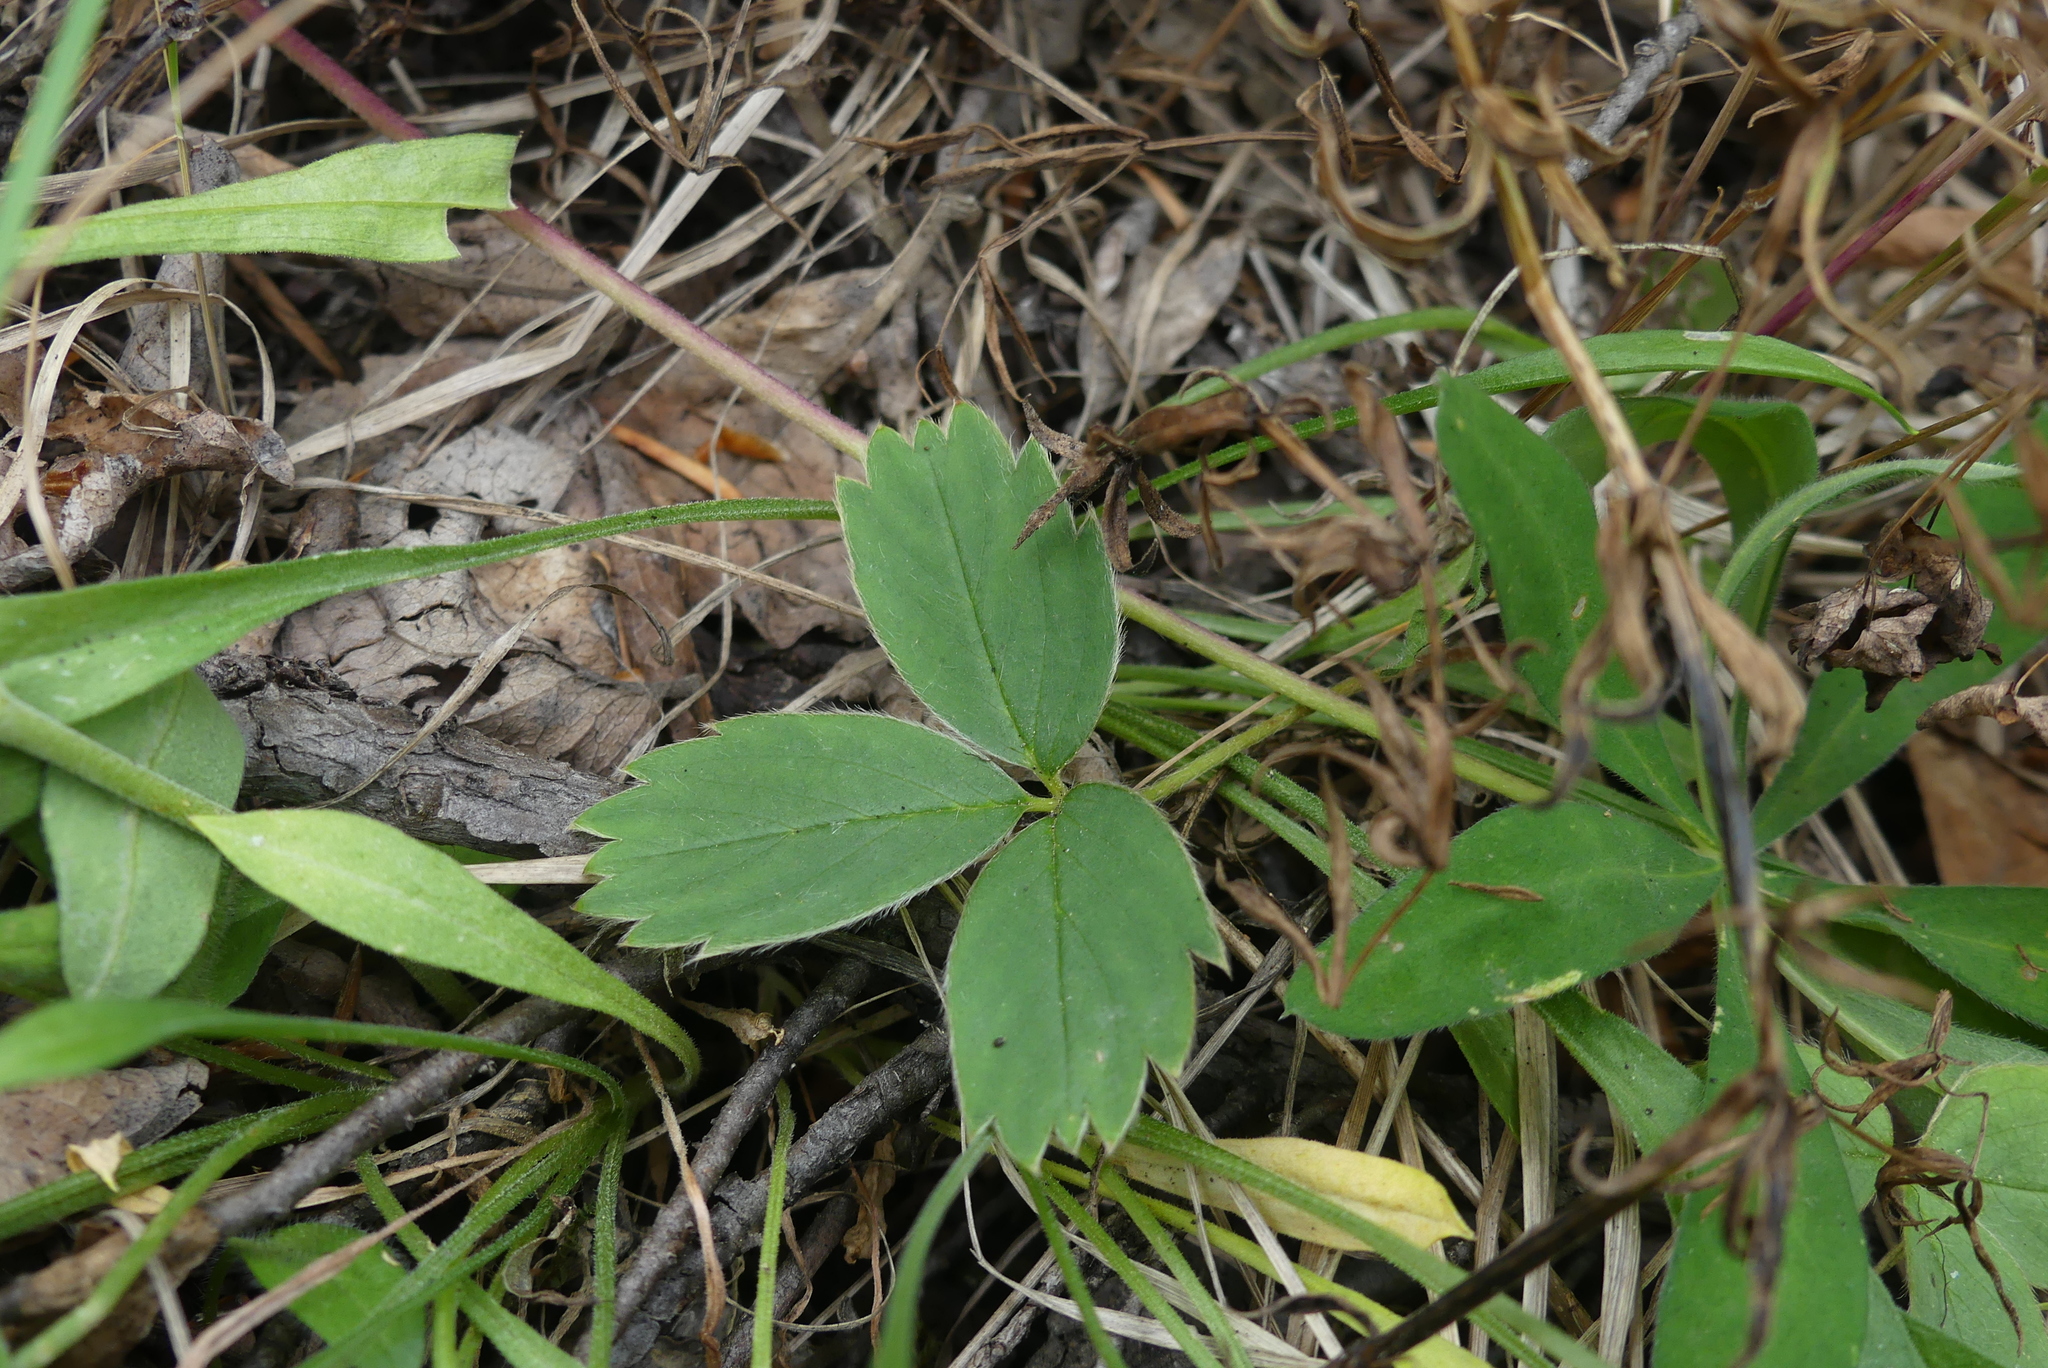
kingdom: Plantae
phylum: Tracheophyta
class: Magnoliopsida
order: Rosales
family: Rosaceae
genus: Fragaria
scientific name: Fragaria virginiana
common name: Thickleaved wild strawberry
